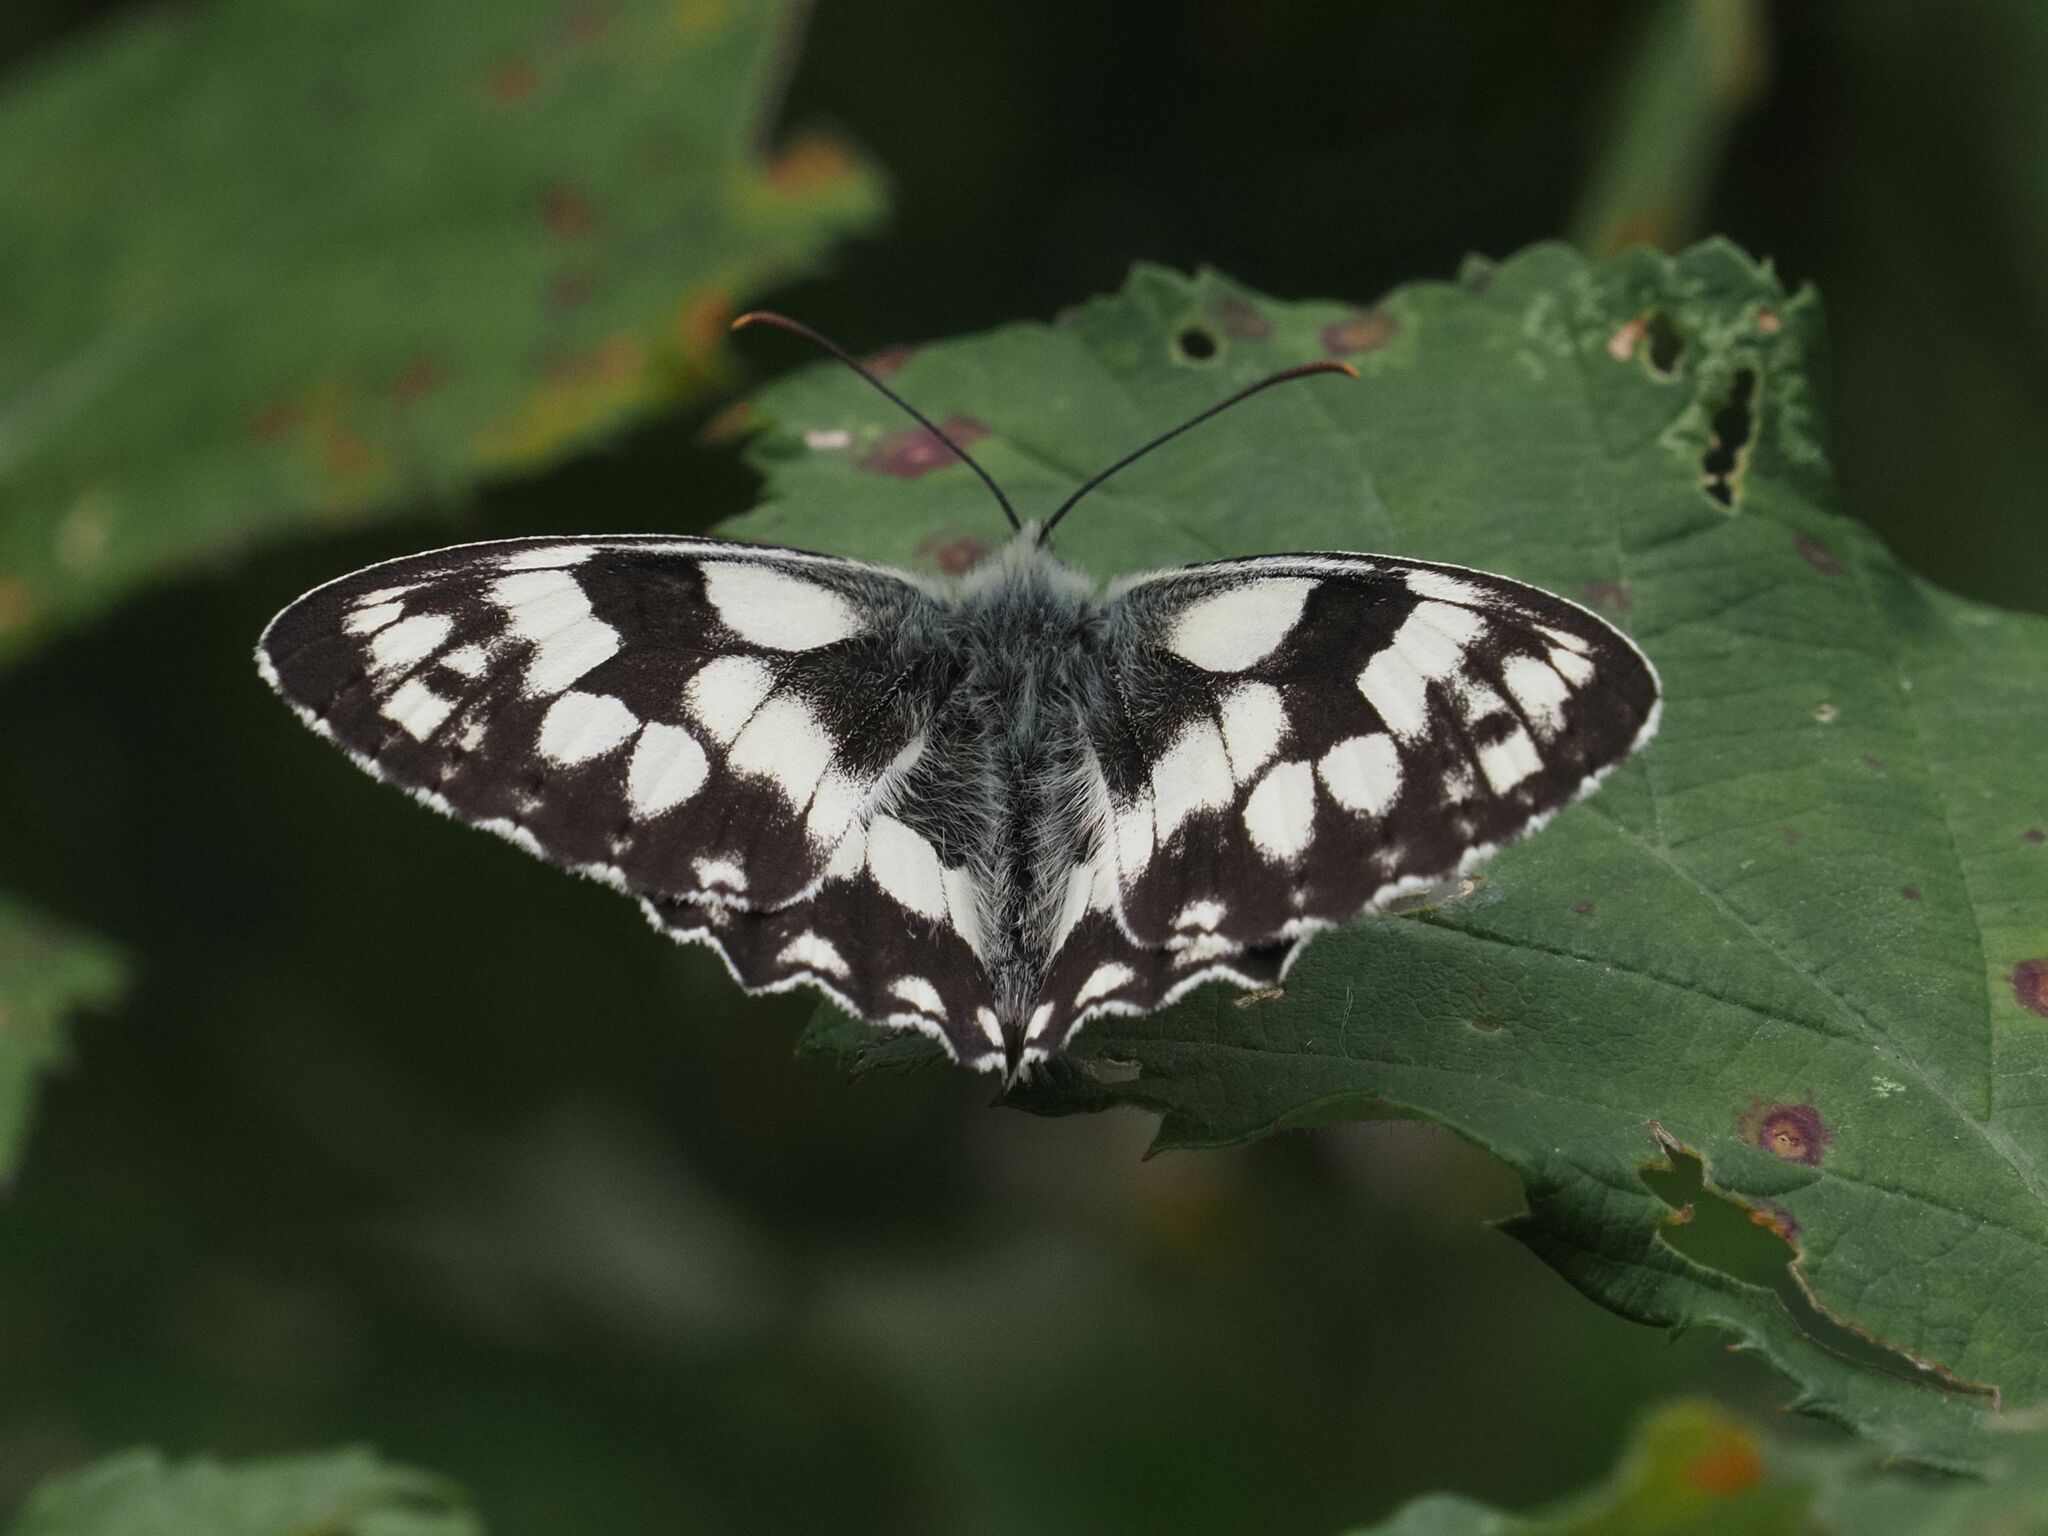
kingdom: Animalia
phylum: Arthropoda
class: Insecta
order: Lepidoptera
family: Nymphalidae
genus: Melanargia
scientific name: Melanargia galathea
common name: Marbled white
